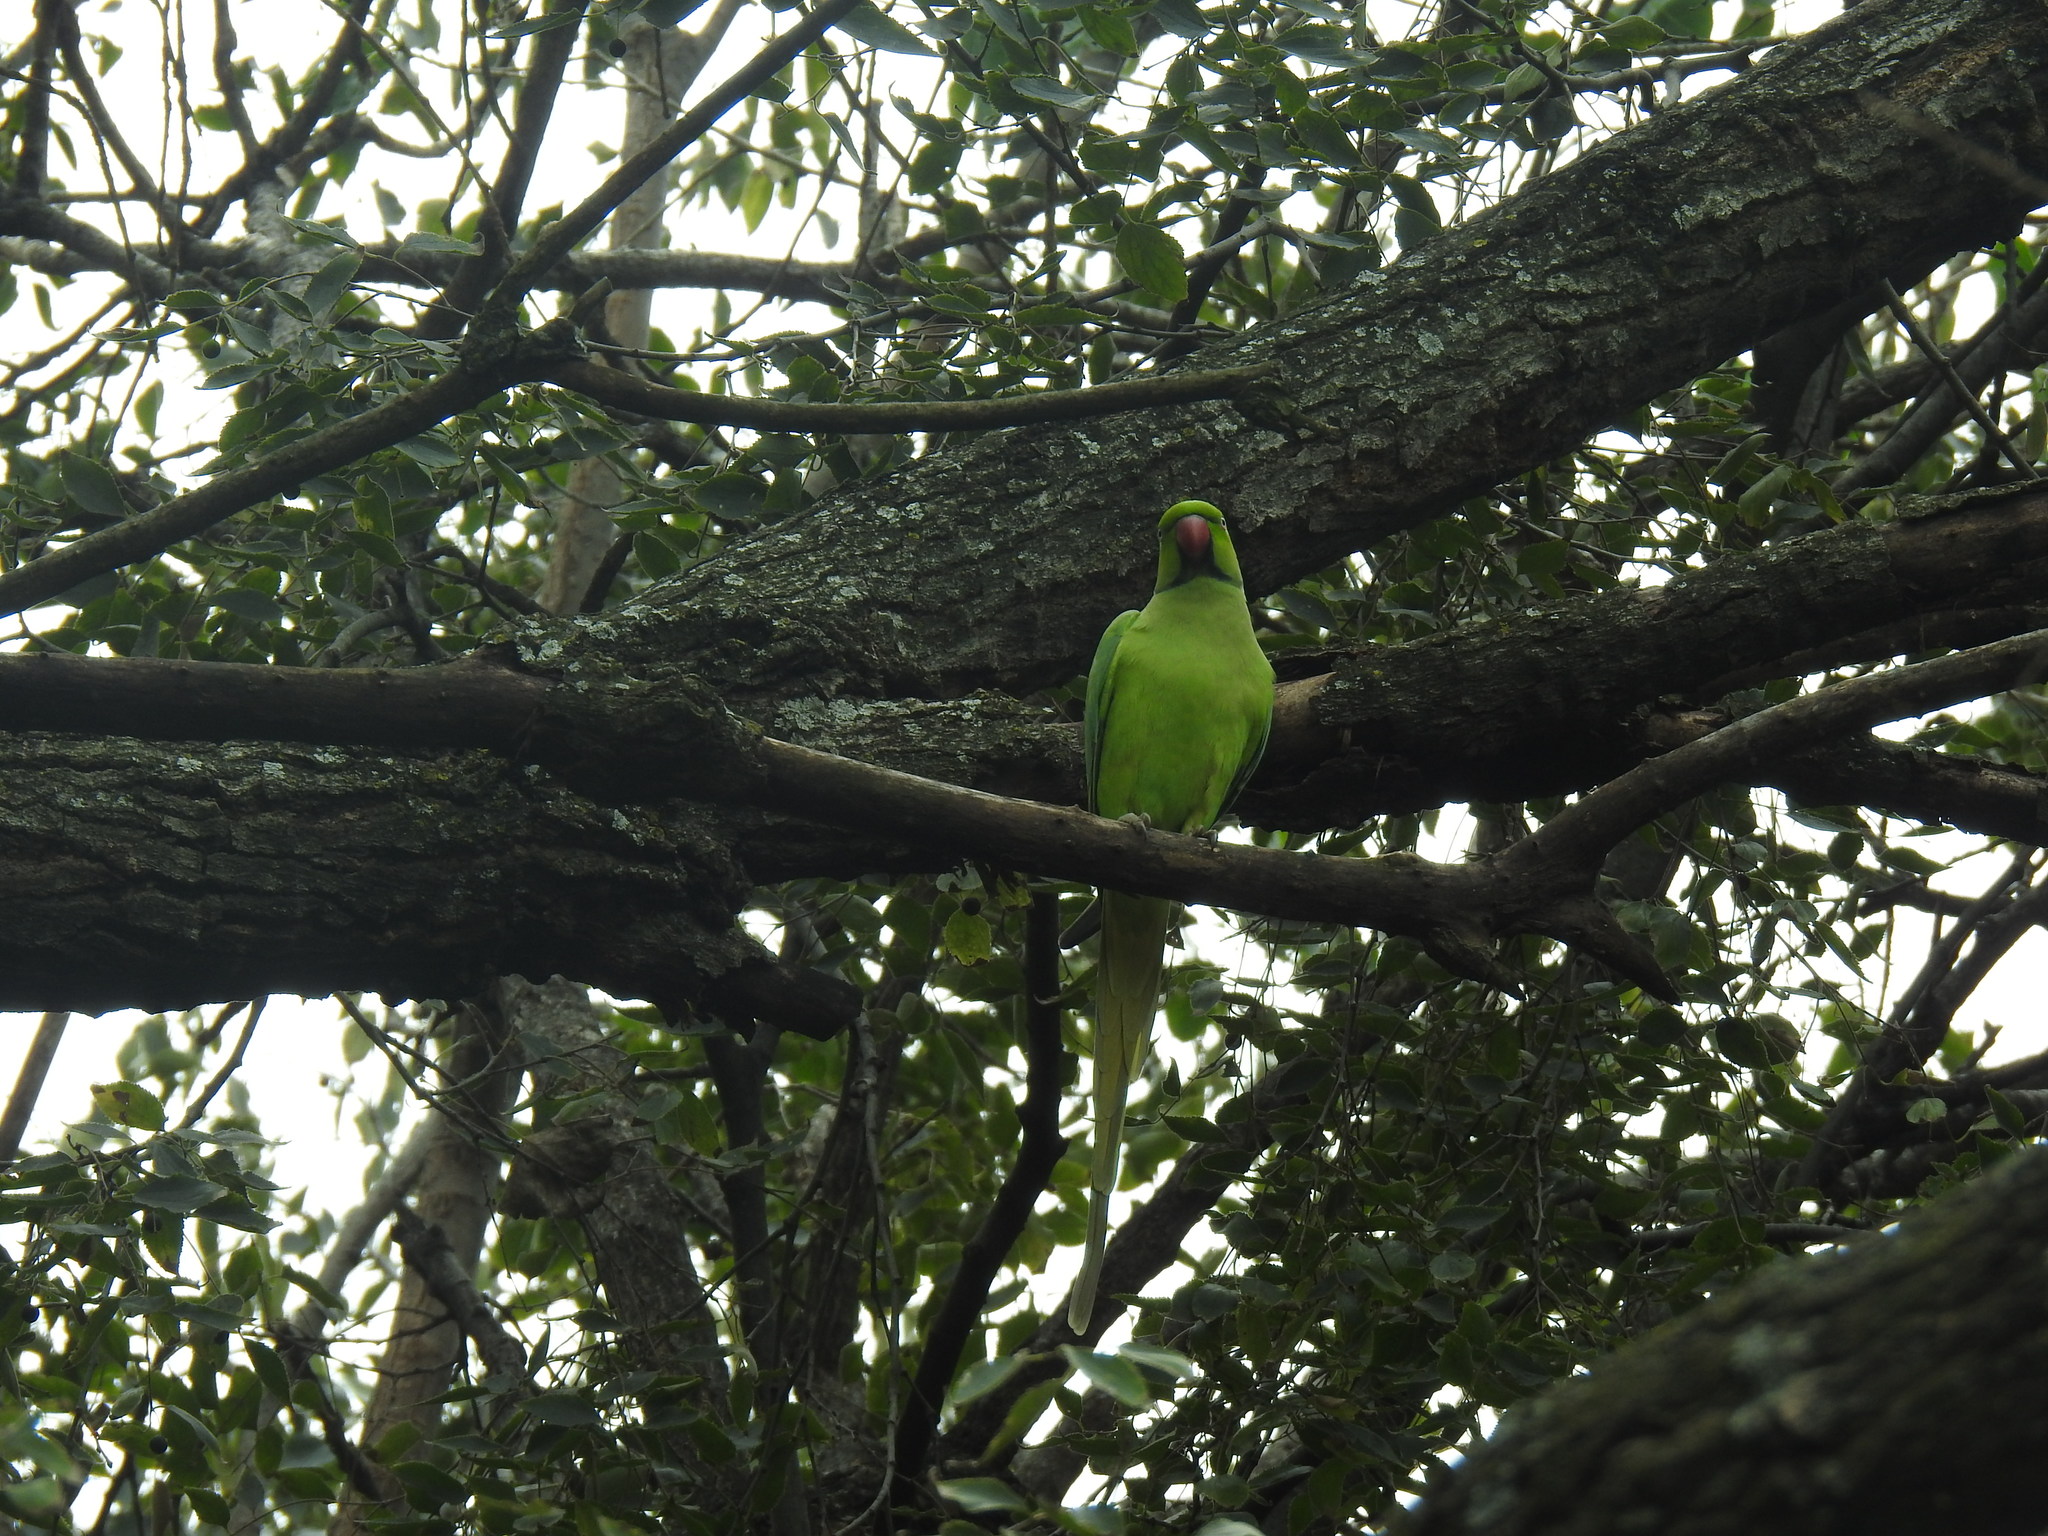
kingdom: Animalia
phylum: Chordata
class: Aves
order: Psittaciformes
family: Psittacidae
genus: Psittacula
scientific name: Psittacula krameri
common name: Rose-ringed parakeet
